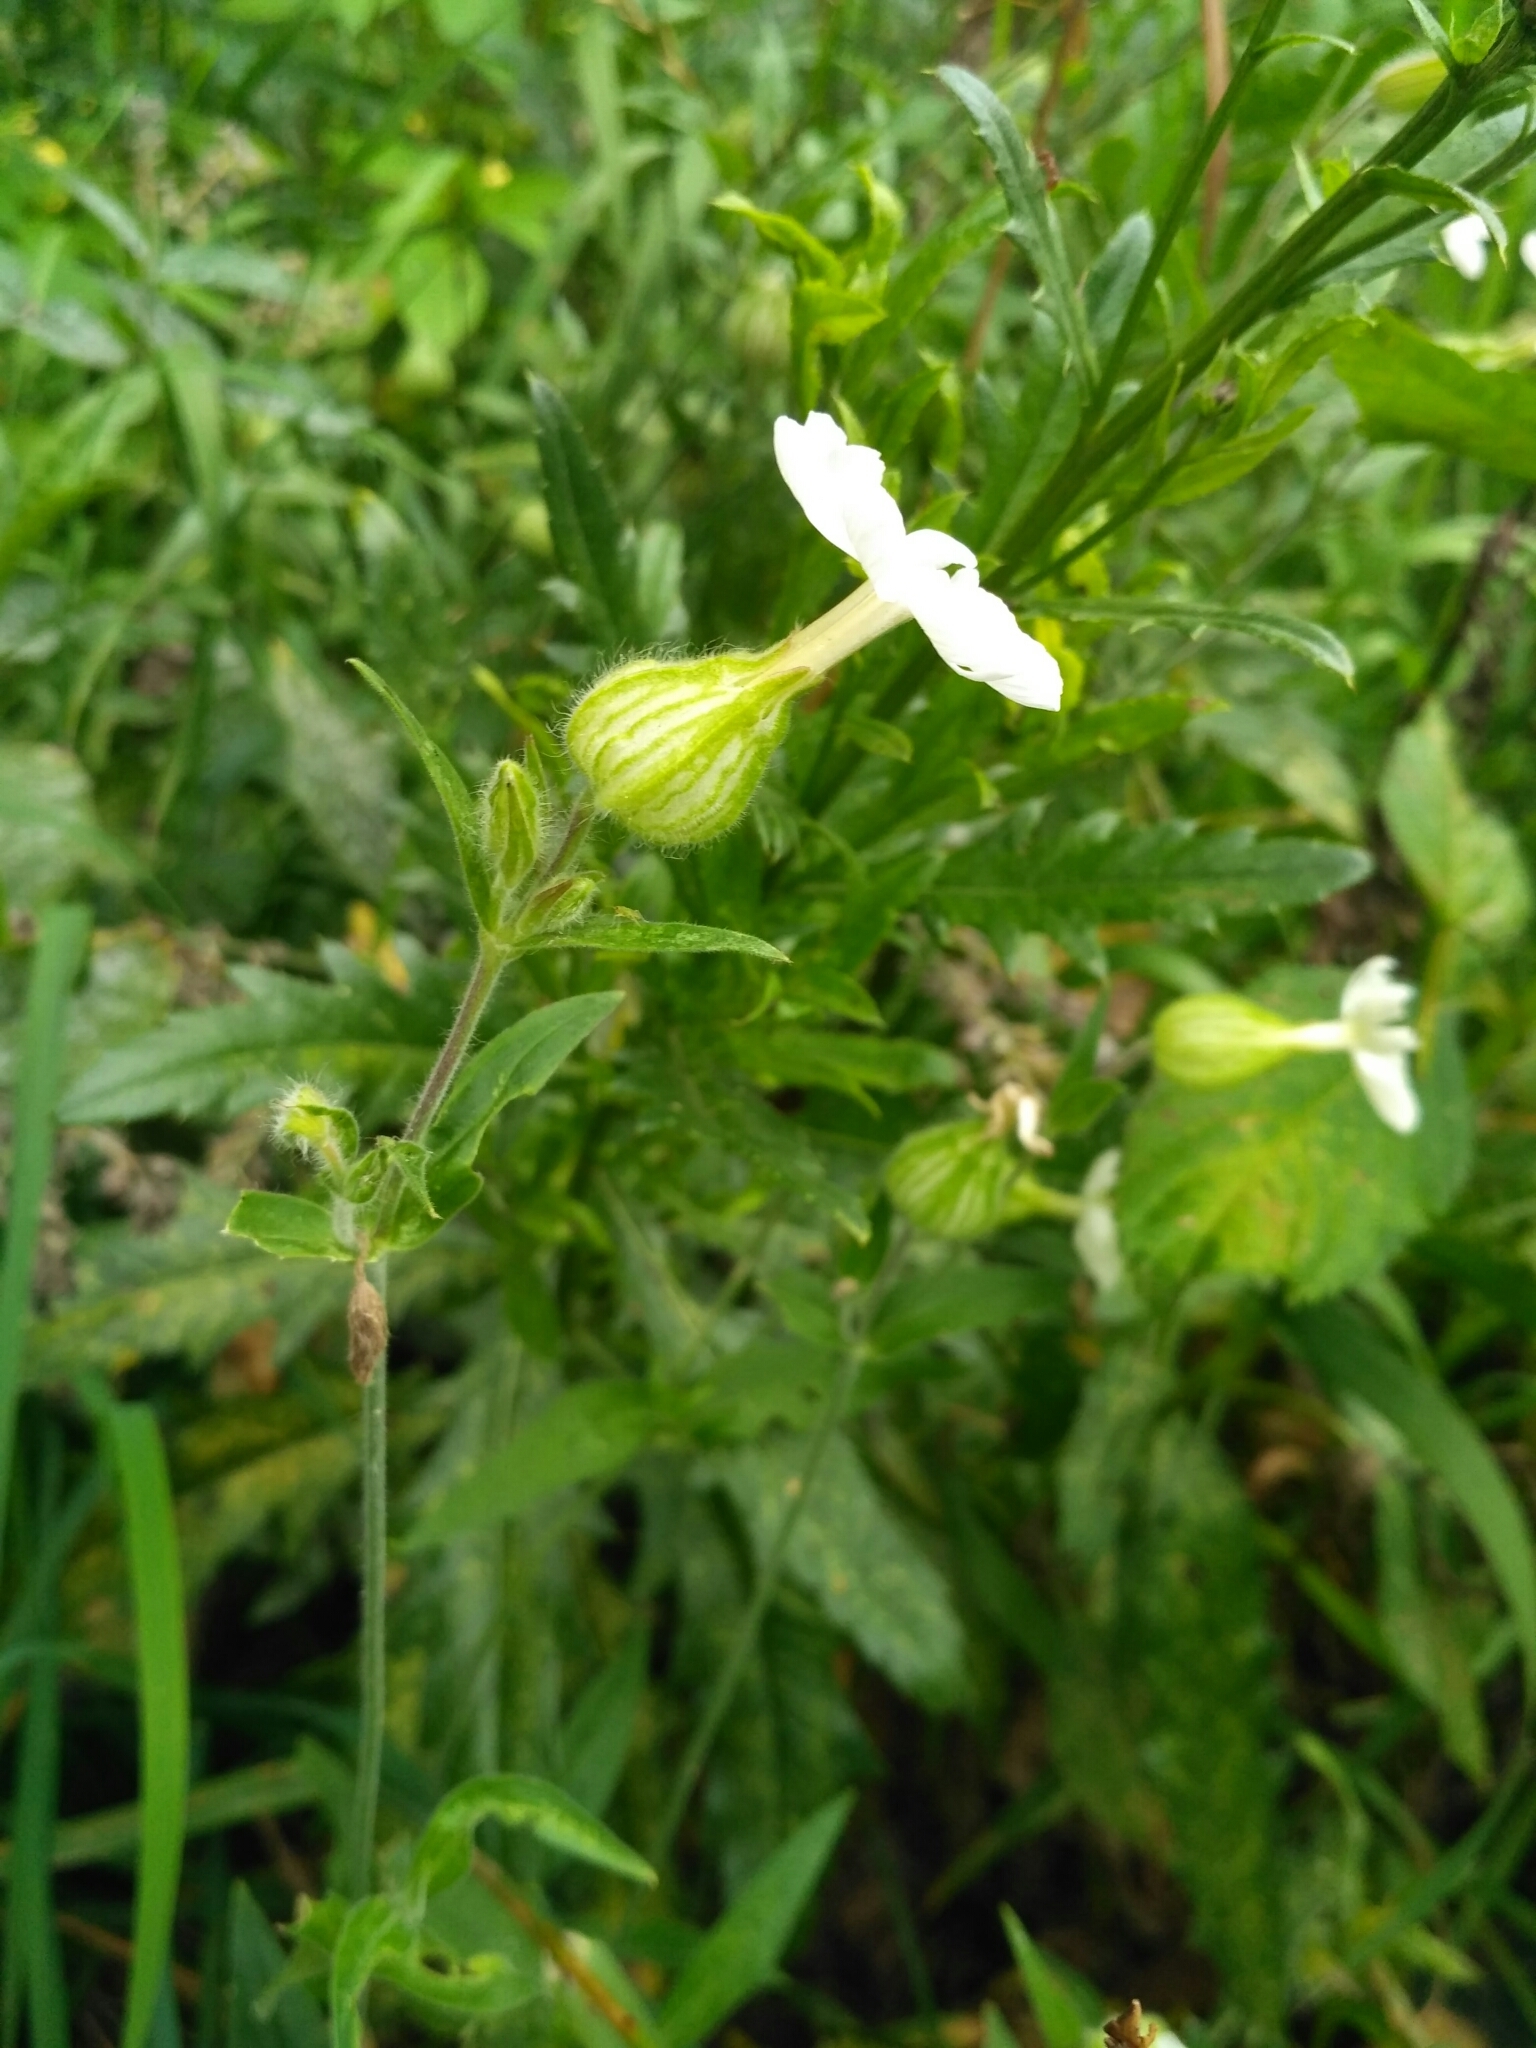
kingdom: Plantae
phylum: Tracheophyta
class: Magnoliopsida
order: Caryophyllales
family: Caryophyllaceae
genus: Silene
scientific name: Silene latifolia
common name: White campion
